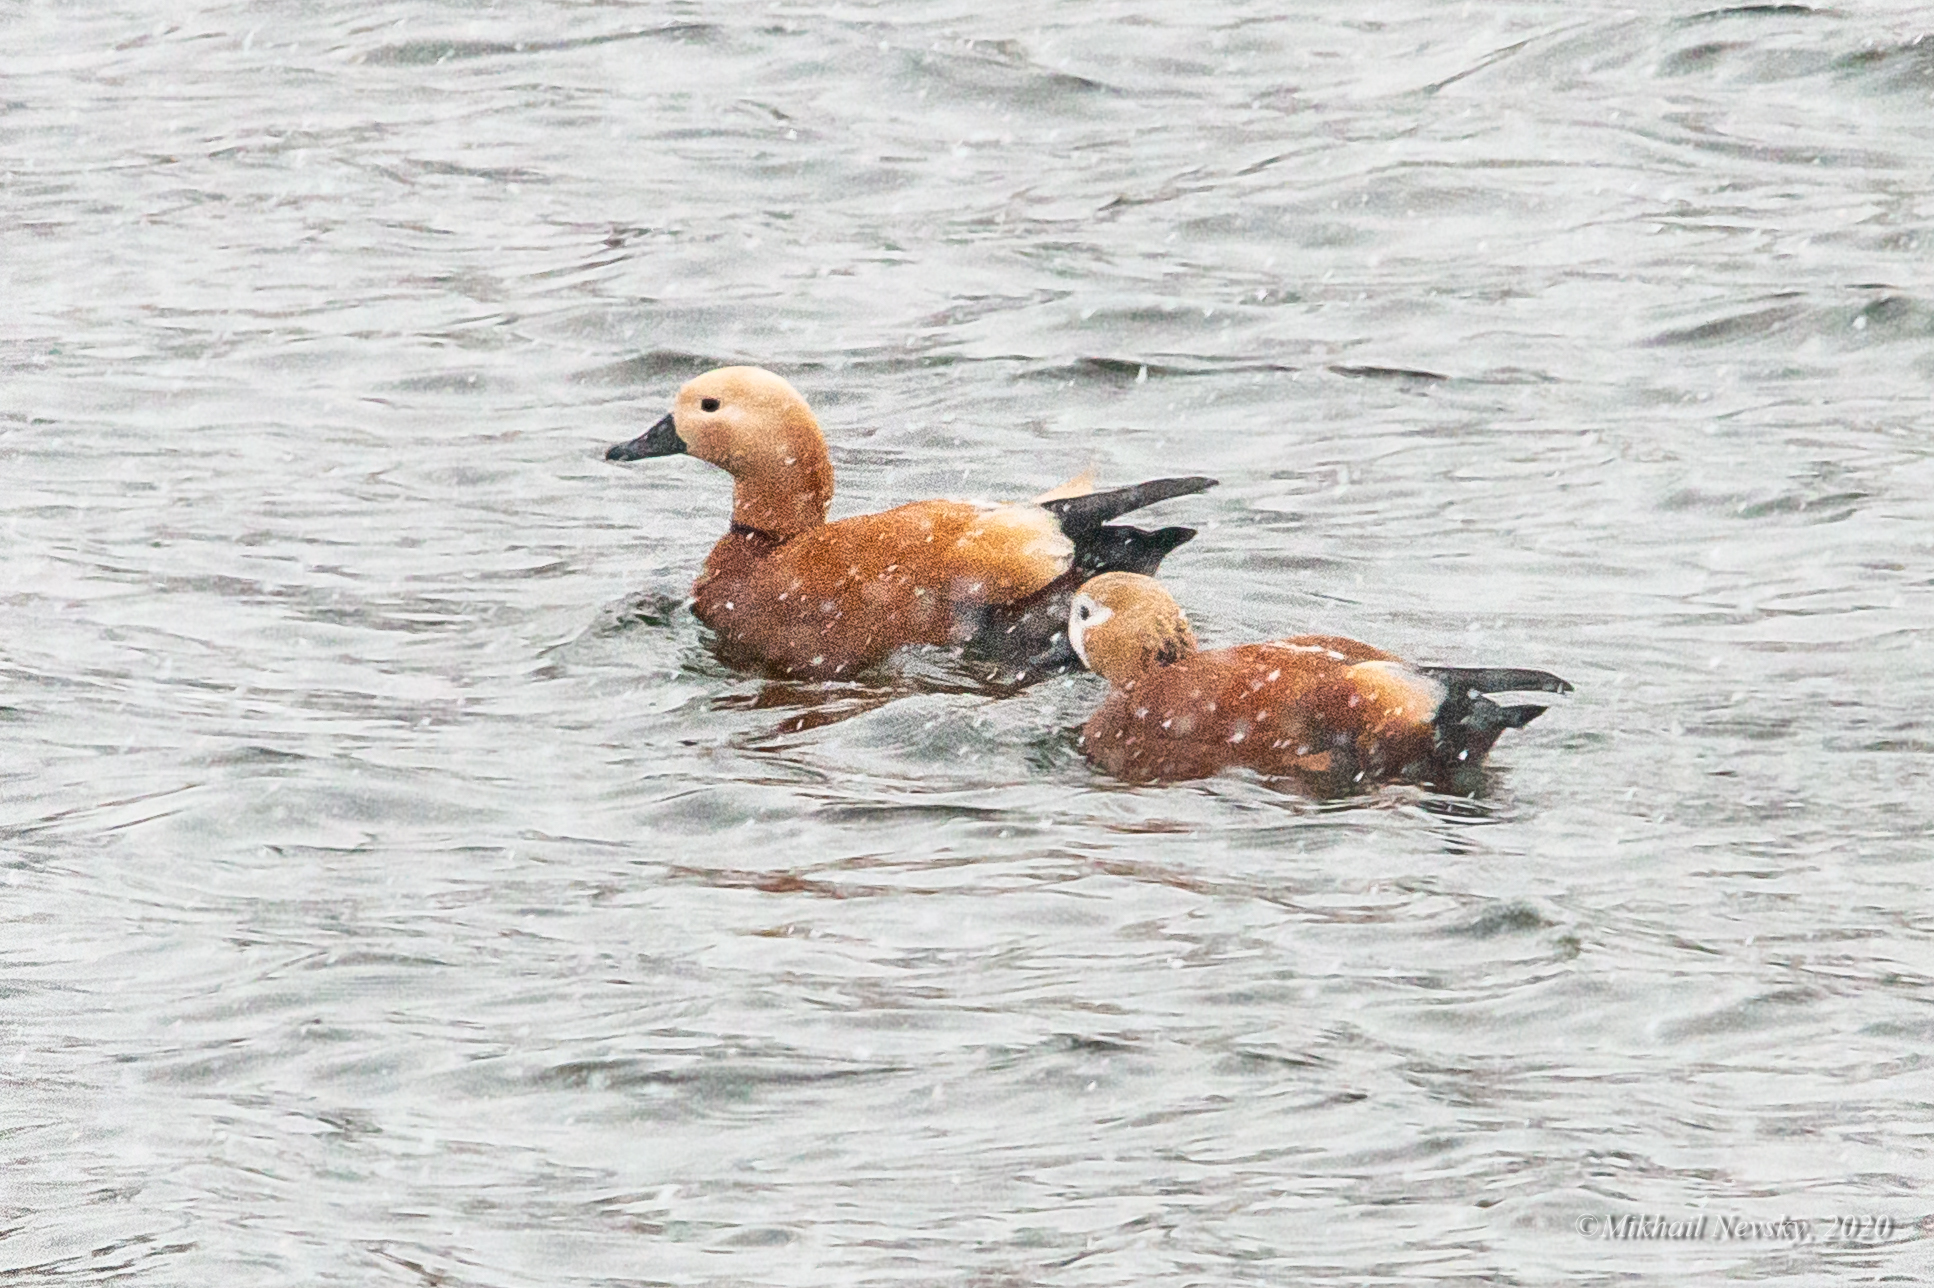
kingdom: Animalia
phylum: Chordata
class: Aves
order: Anseriformes
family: Anatidae
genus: Tadorna
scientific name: Tadorna ferruginea
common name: Ruddy shelduck
